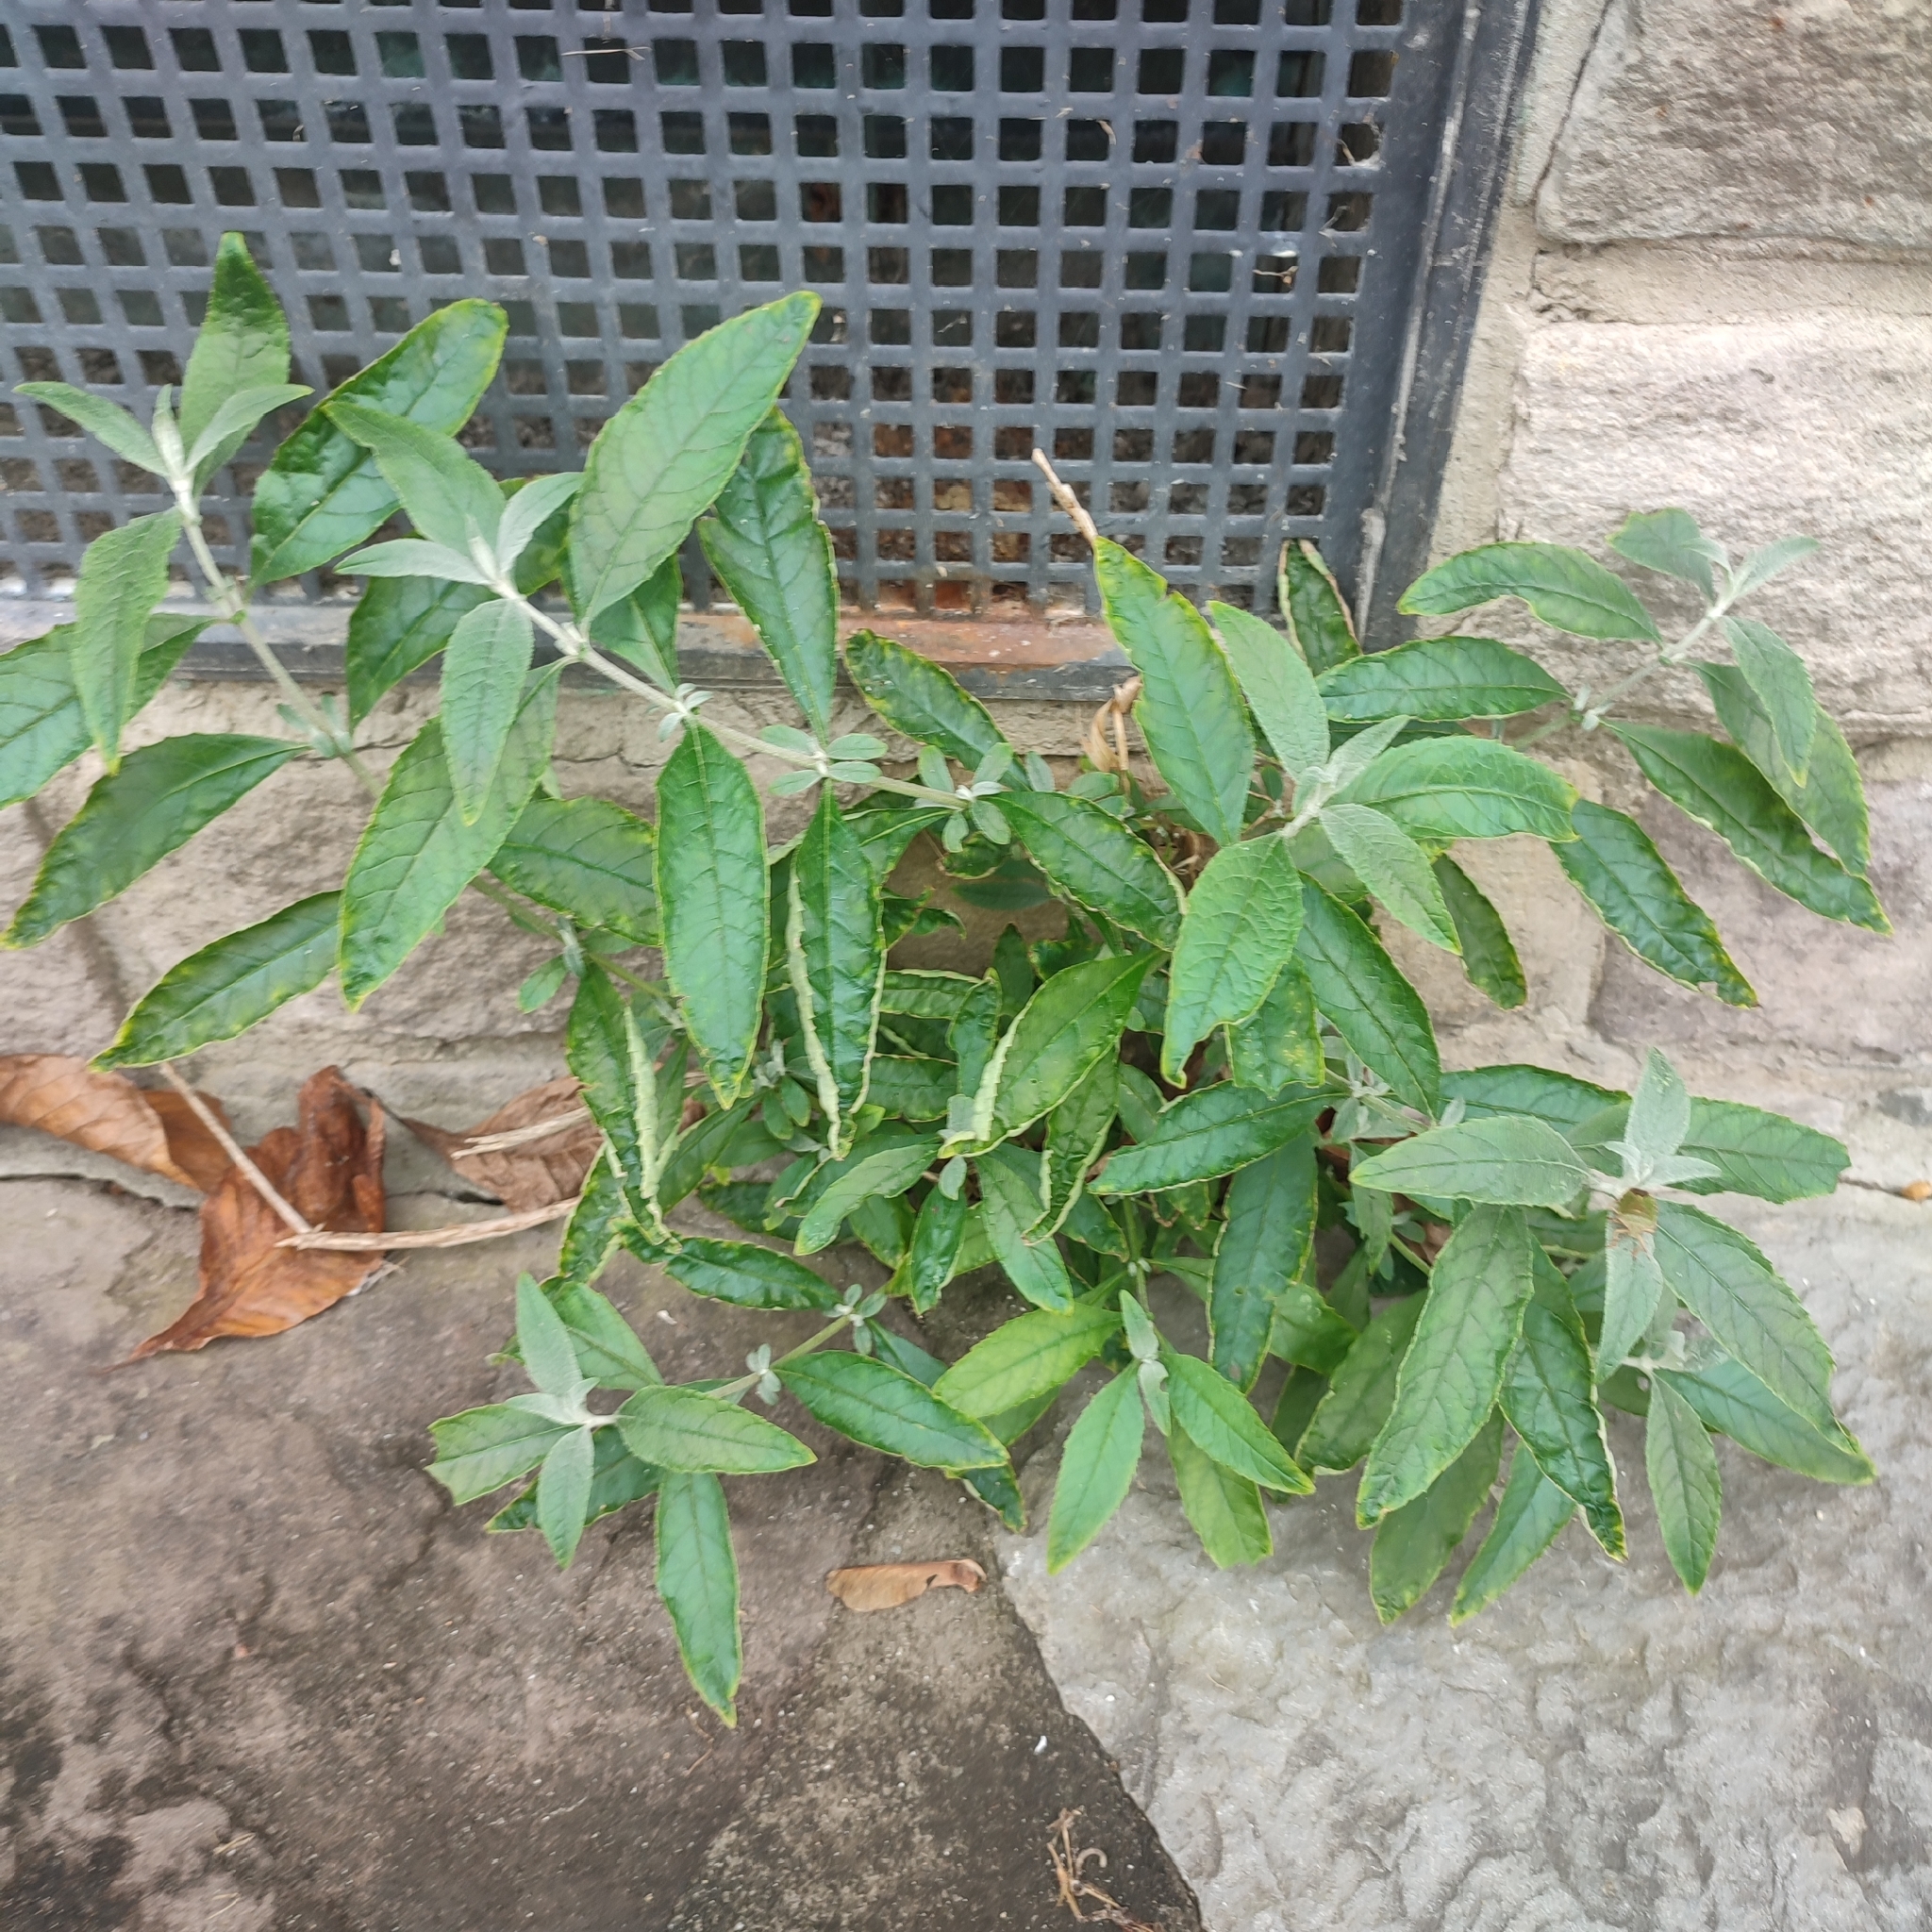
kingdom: Plantae
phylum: Tracheophyta
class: Magnoliopsida
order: Lamiales
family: Scrophulariaceae
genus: Buddleja
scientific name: Buddleja davidii
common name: Butterfly-bush
